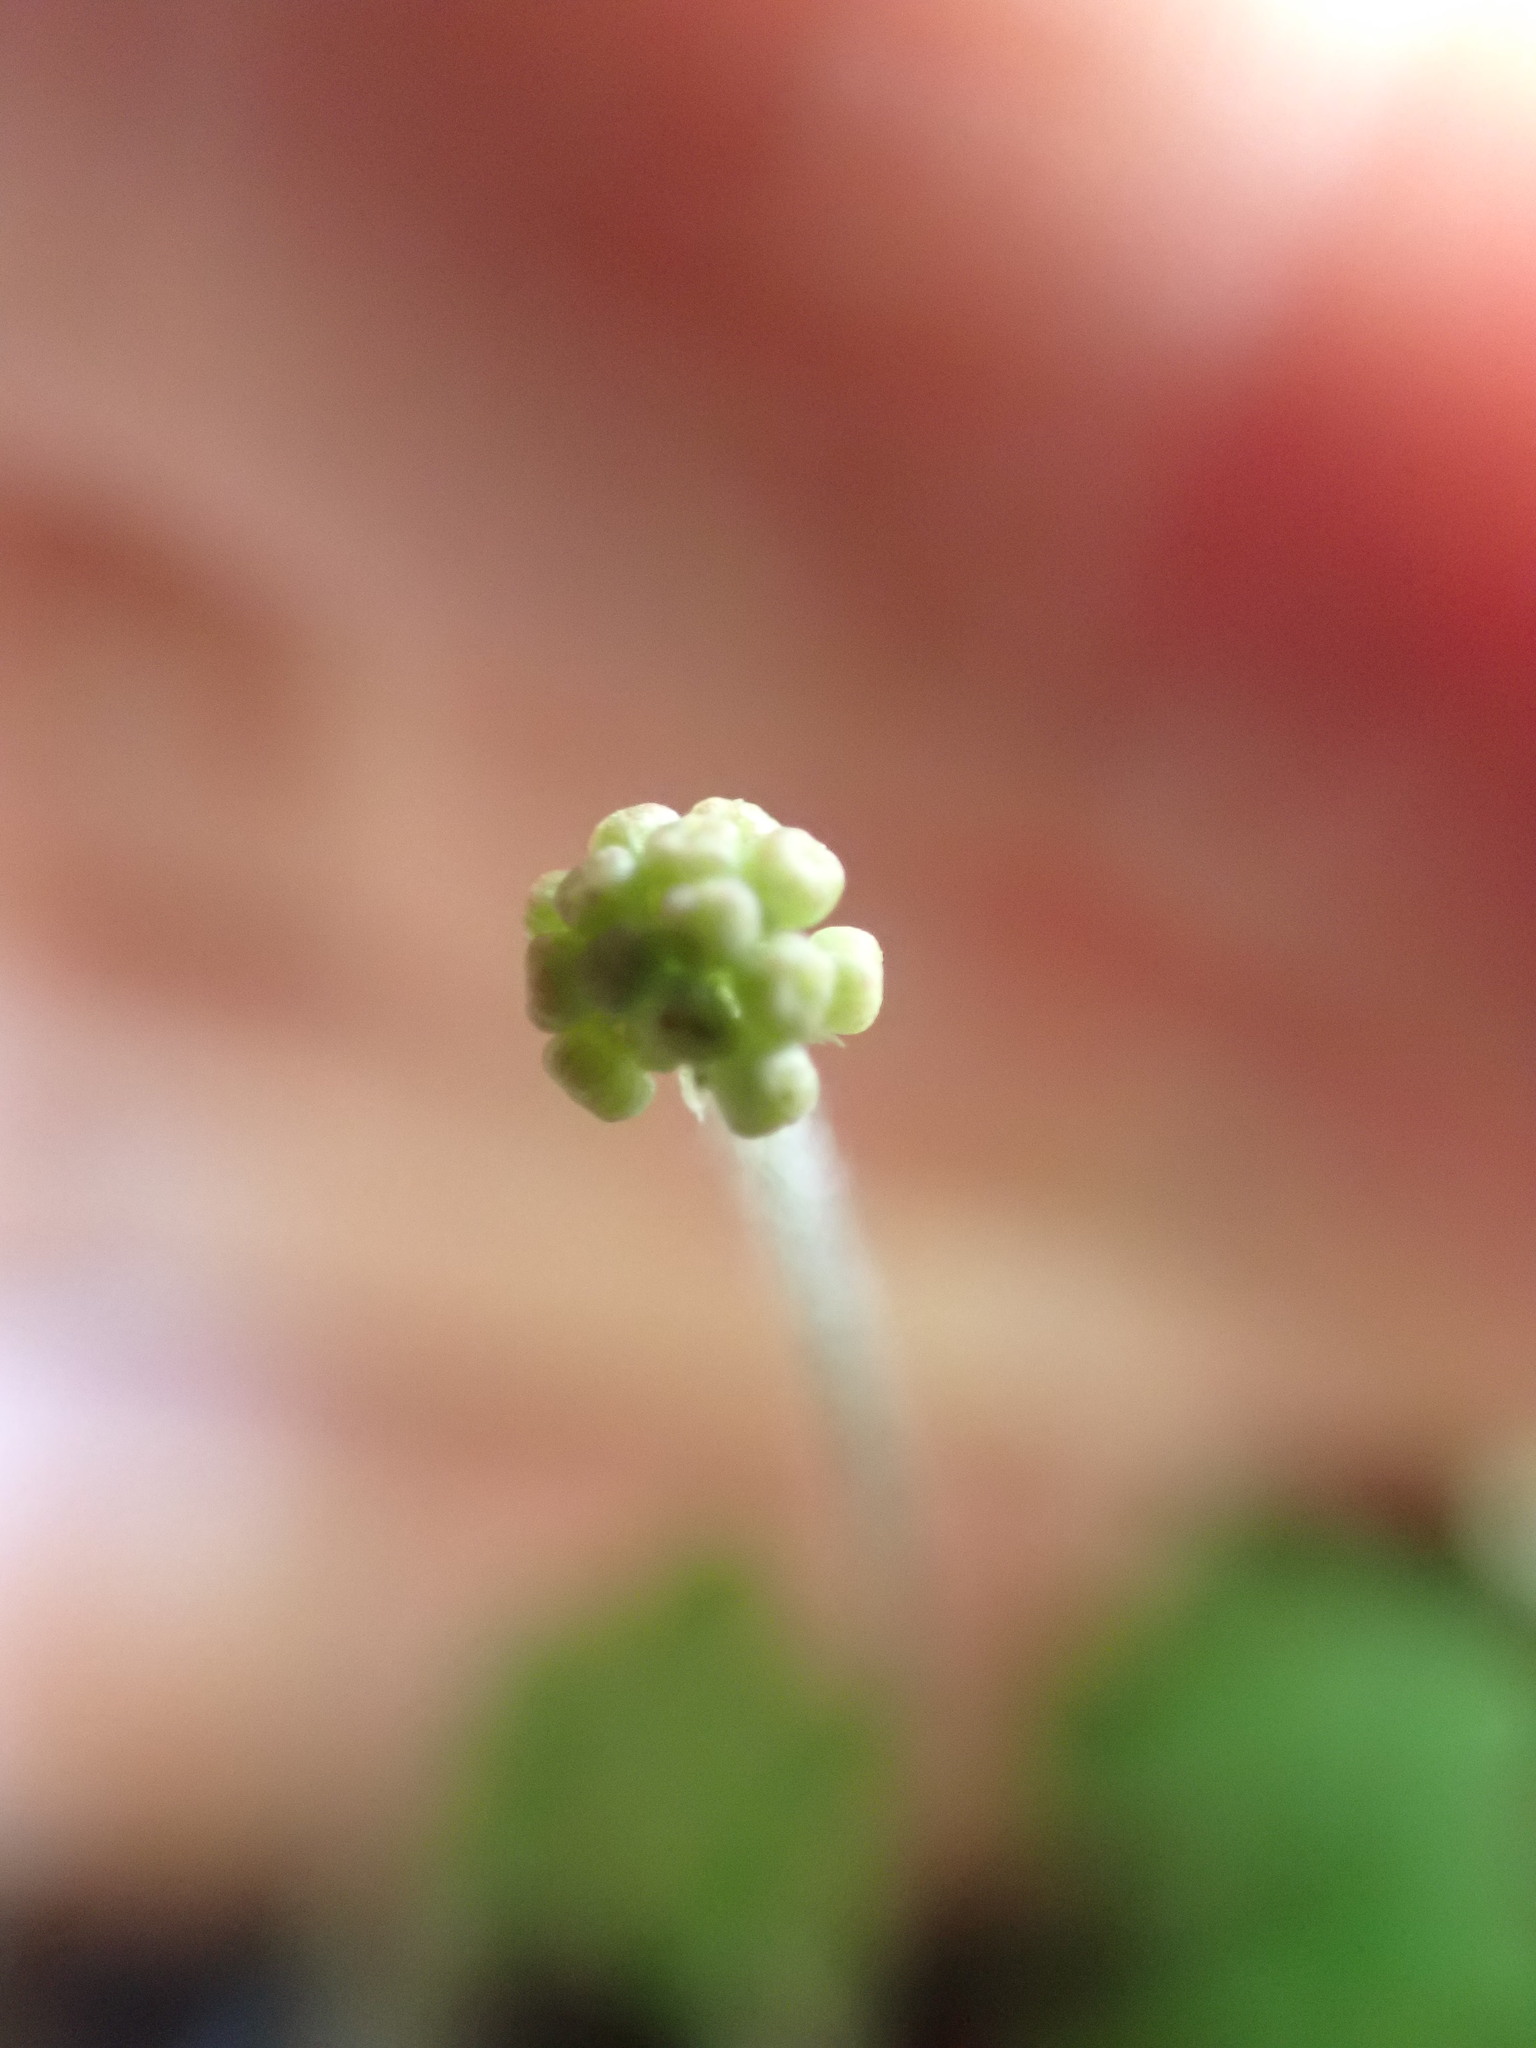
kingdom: Plantae
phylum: Tracheophyta
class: Magnoliopsida
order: Apiales
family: Araliaceae
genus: Hydrocotyle
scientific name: Hydrocotyle elongata
